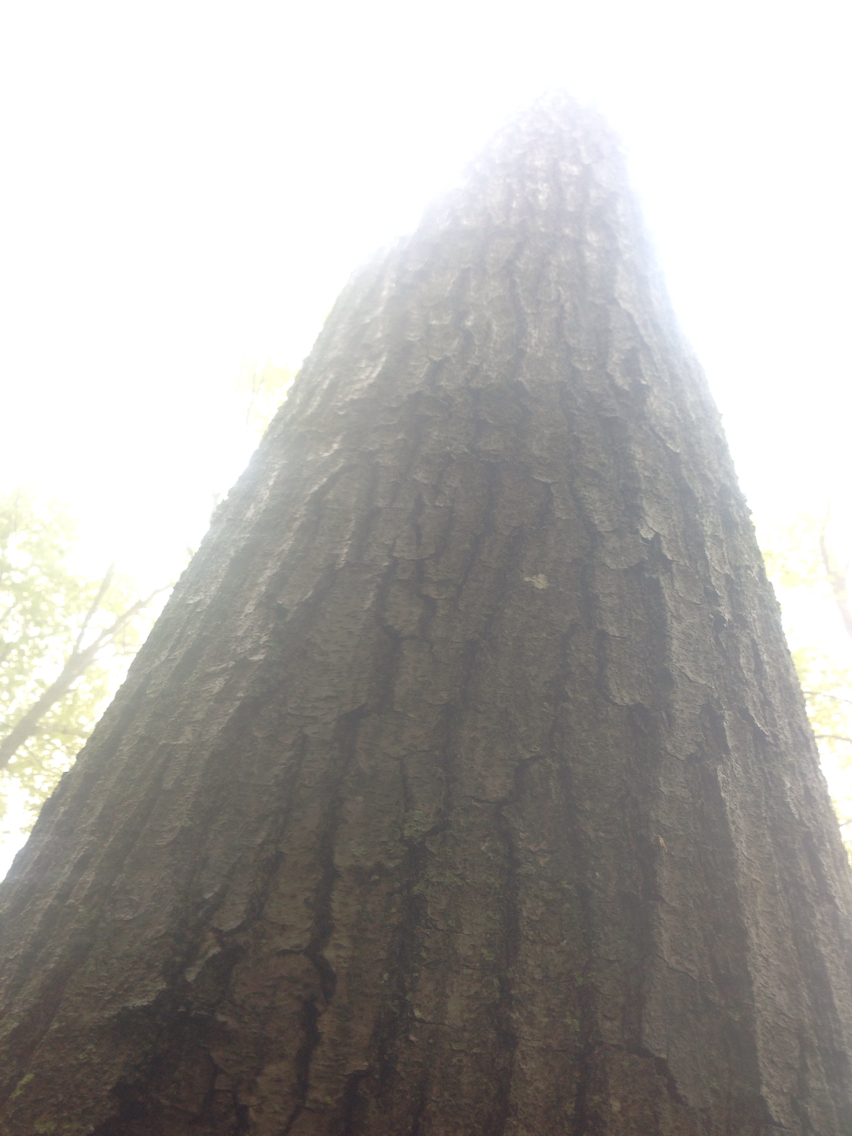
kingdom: Plantae
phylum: Tracheophyta
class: Magnoliopsida
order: Fagales
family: Fagaceae
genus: Quercus
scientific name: Quercus rubra
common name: Red oak
